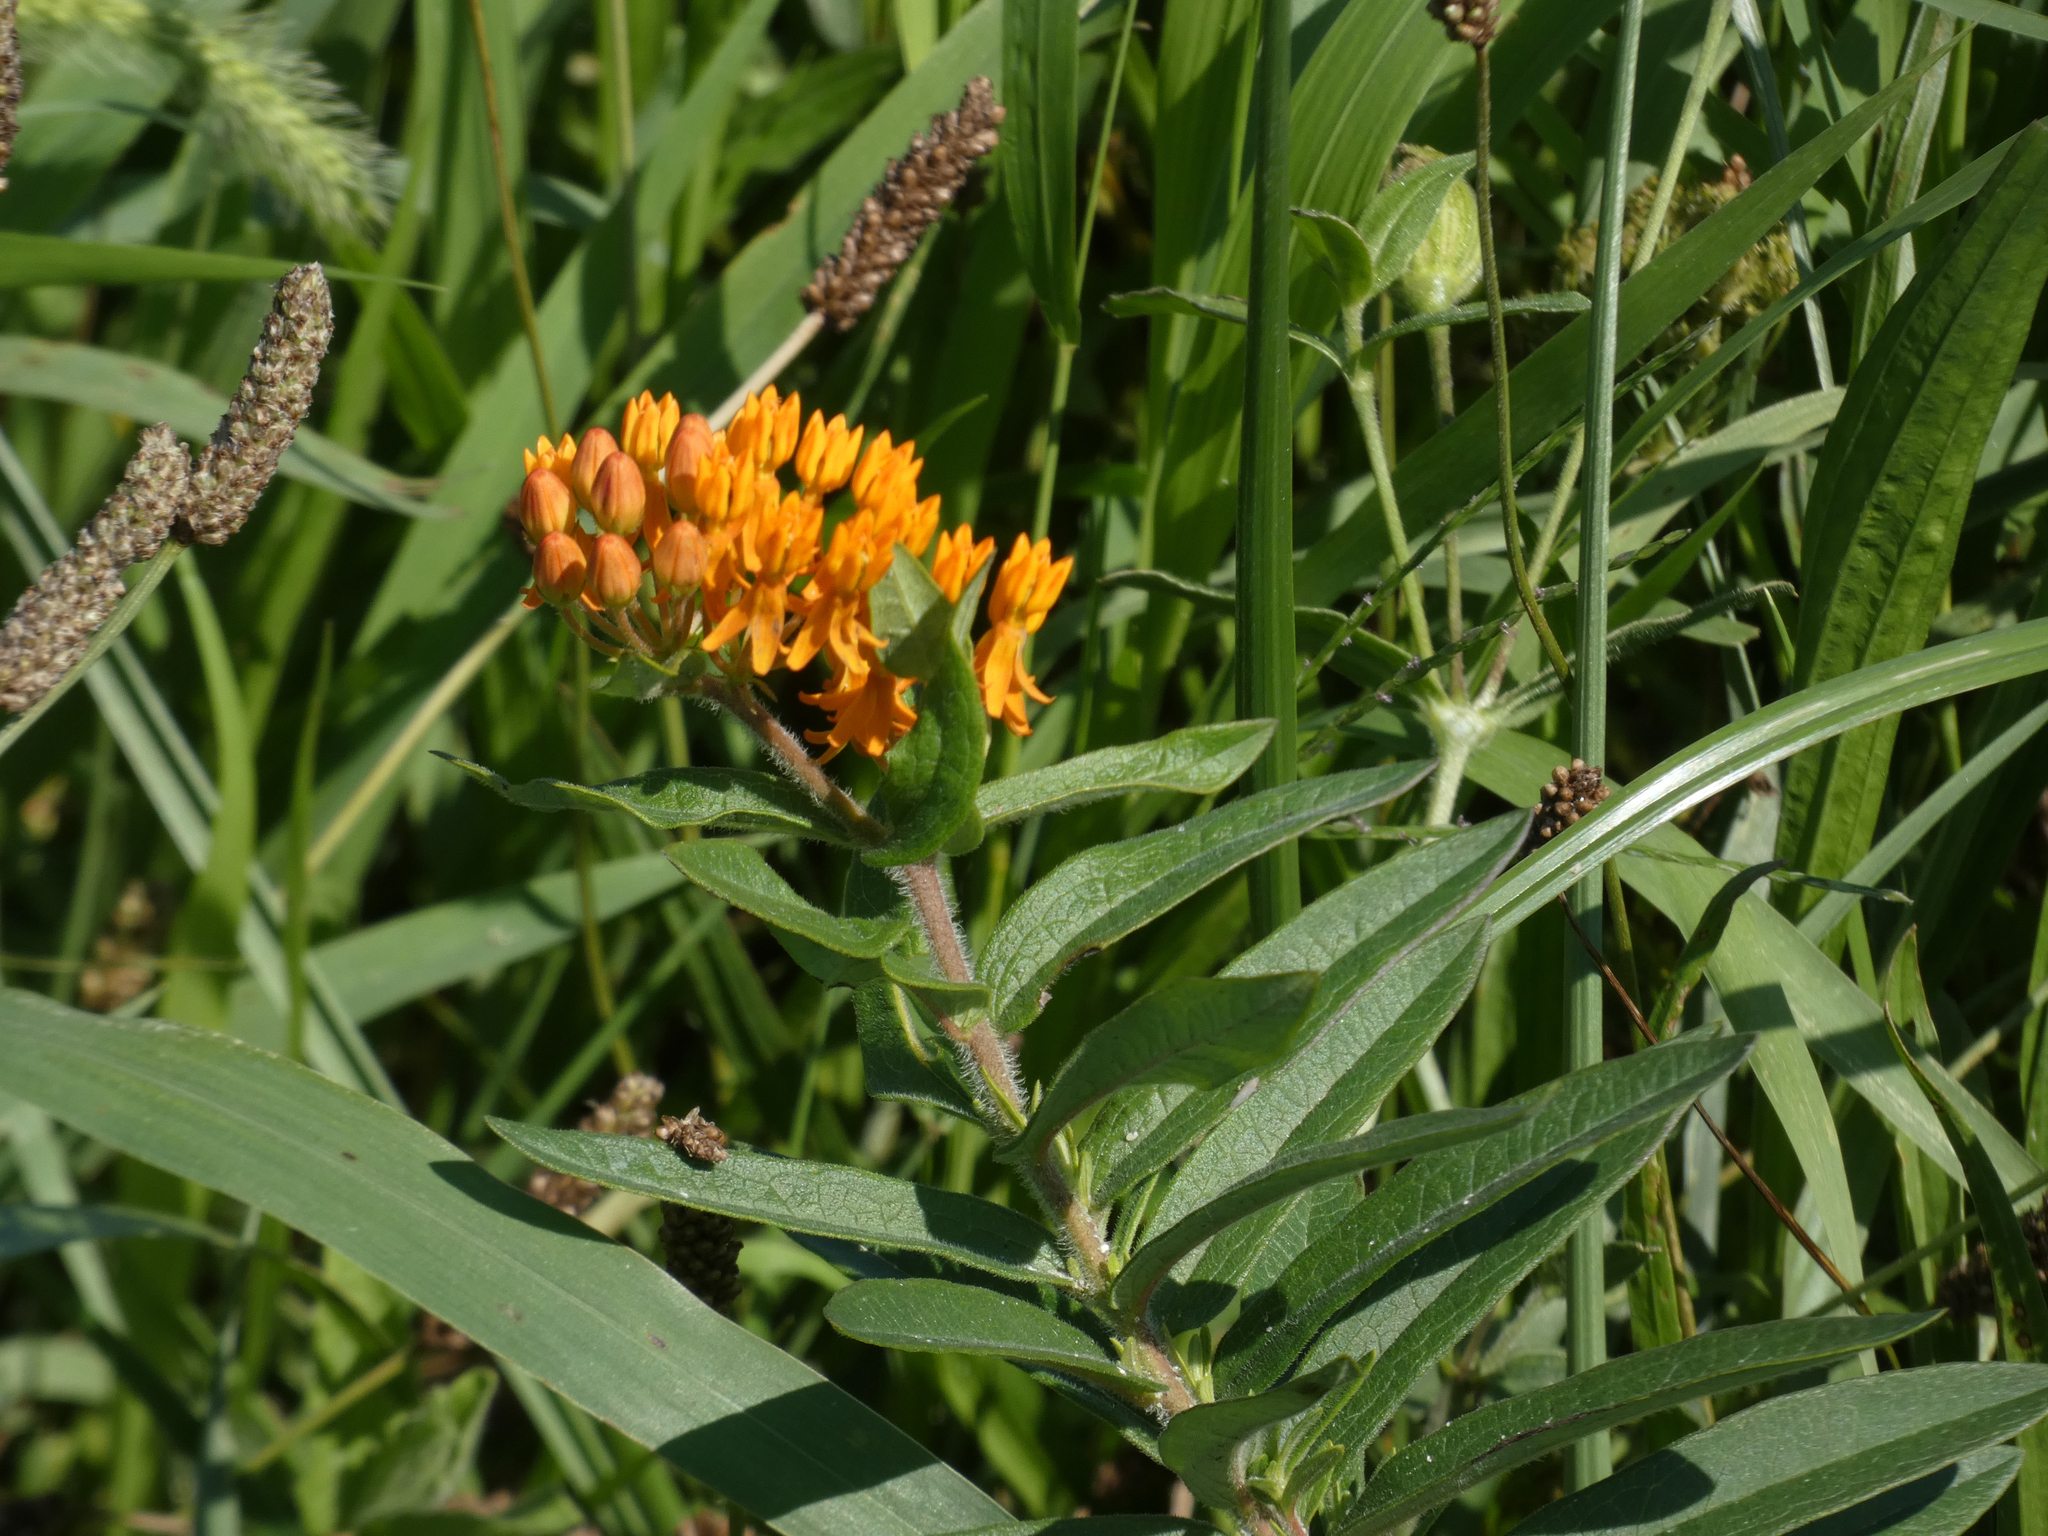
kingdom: Plantae
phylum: Tracheophyta
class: Magnoliopsida
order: Gentianales
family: Apocynaceae
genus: Asclepias
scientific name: Asclepias tuberosa
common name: Butterfly milkweed
